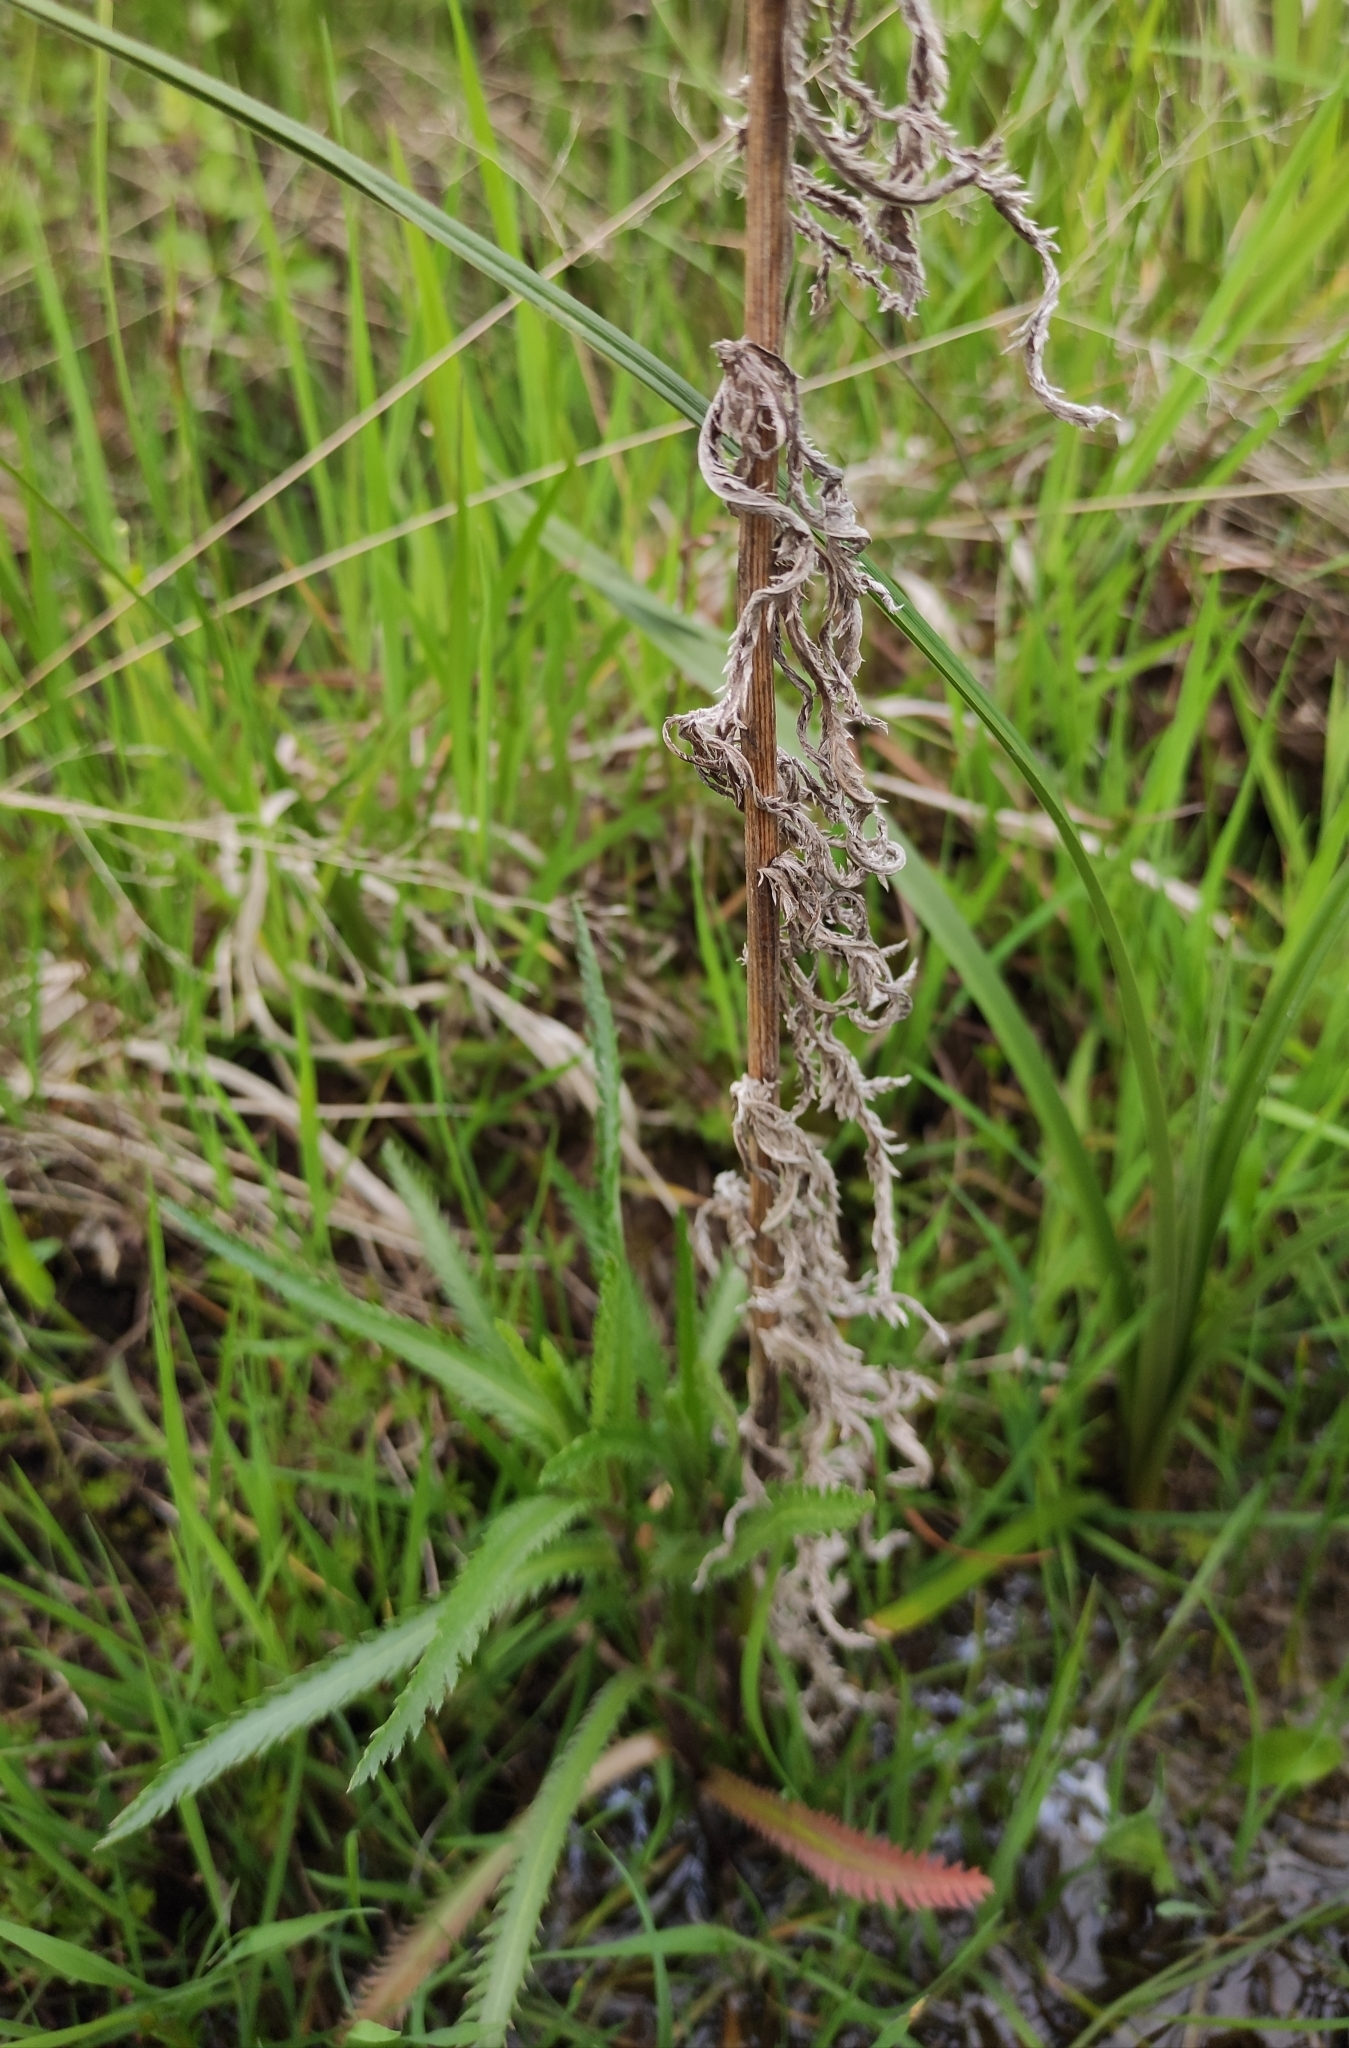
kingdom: Plantae
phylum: Tracheophyta
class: Magnoliopsida
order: Asterales
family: Asteraceae
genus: Achillea
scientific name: Achillea alpina
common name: Siberian yarrow
